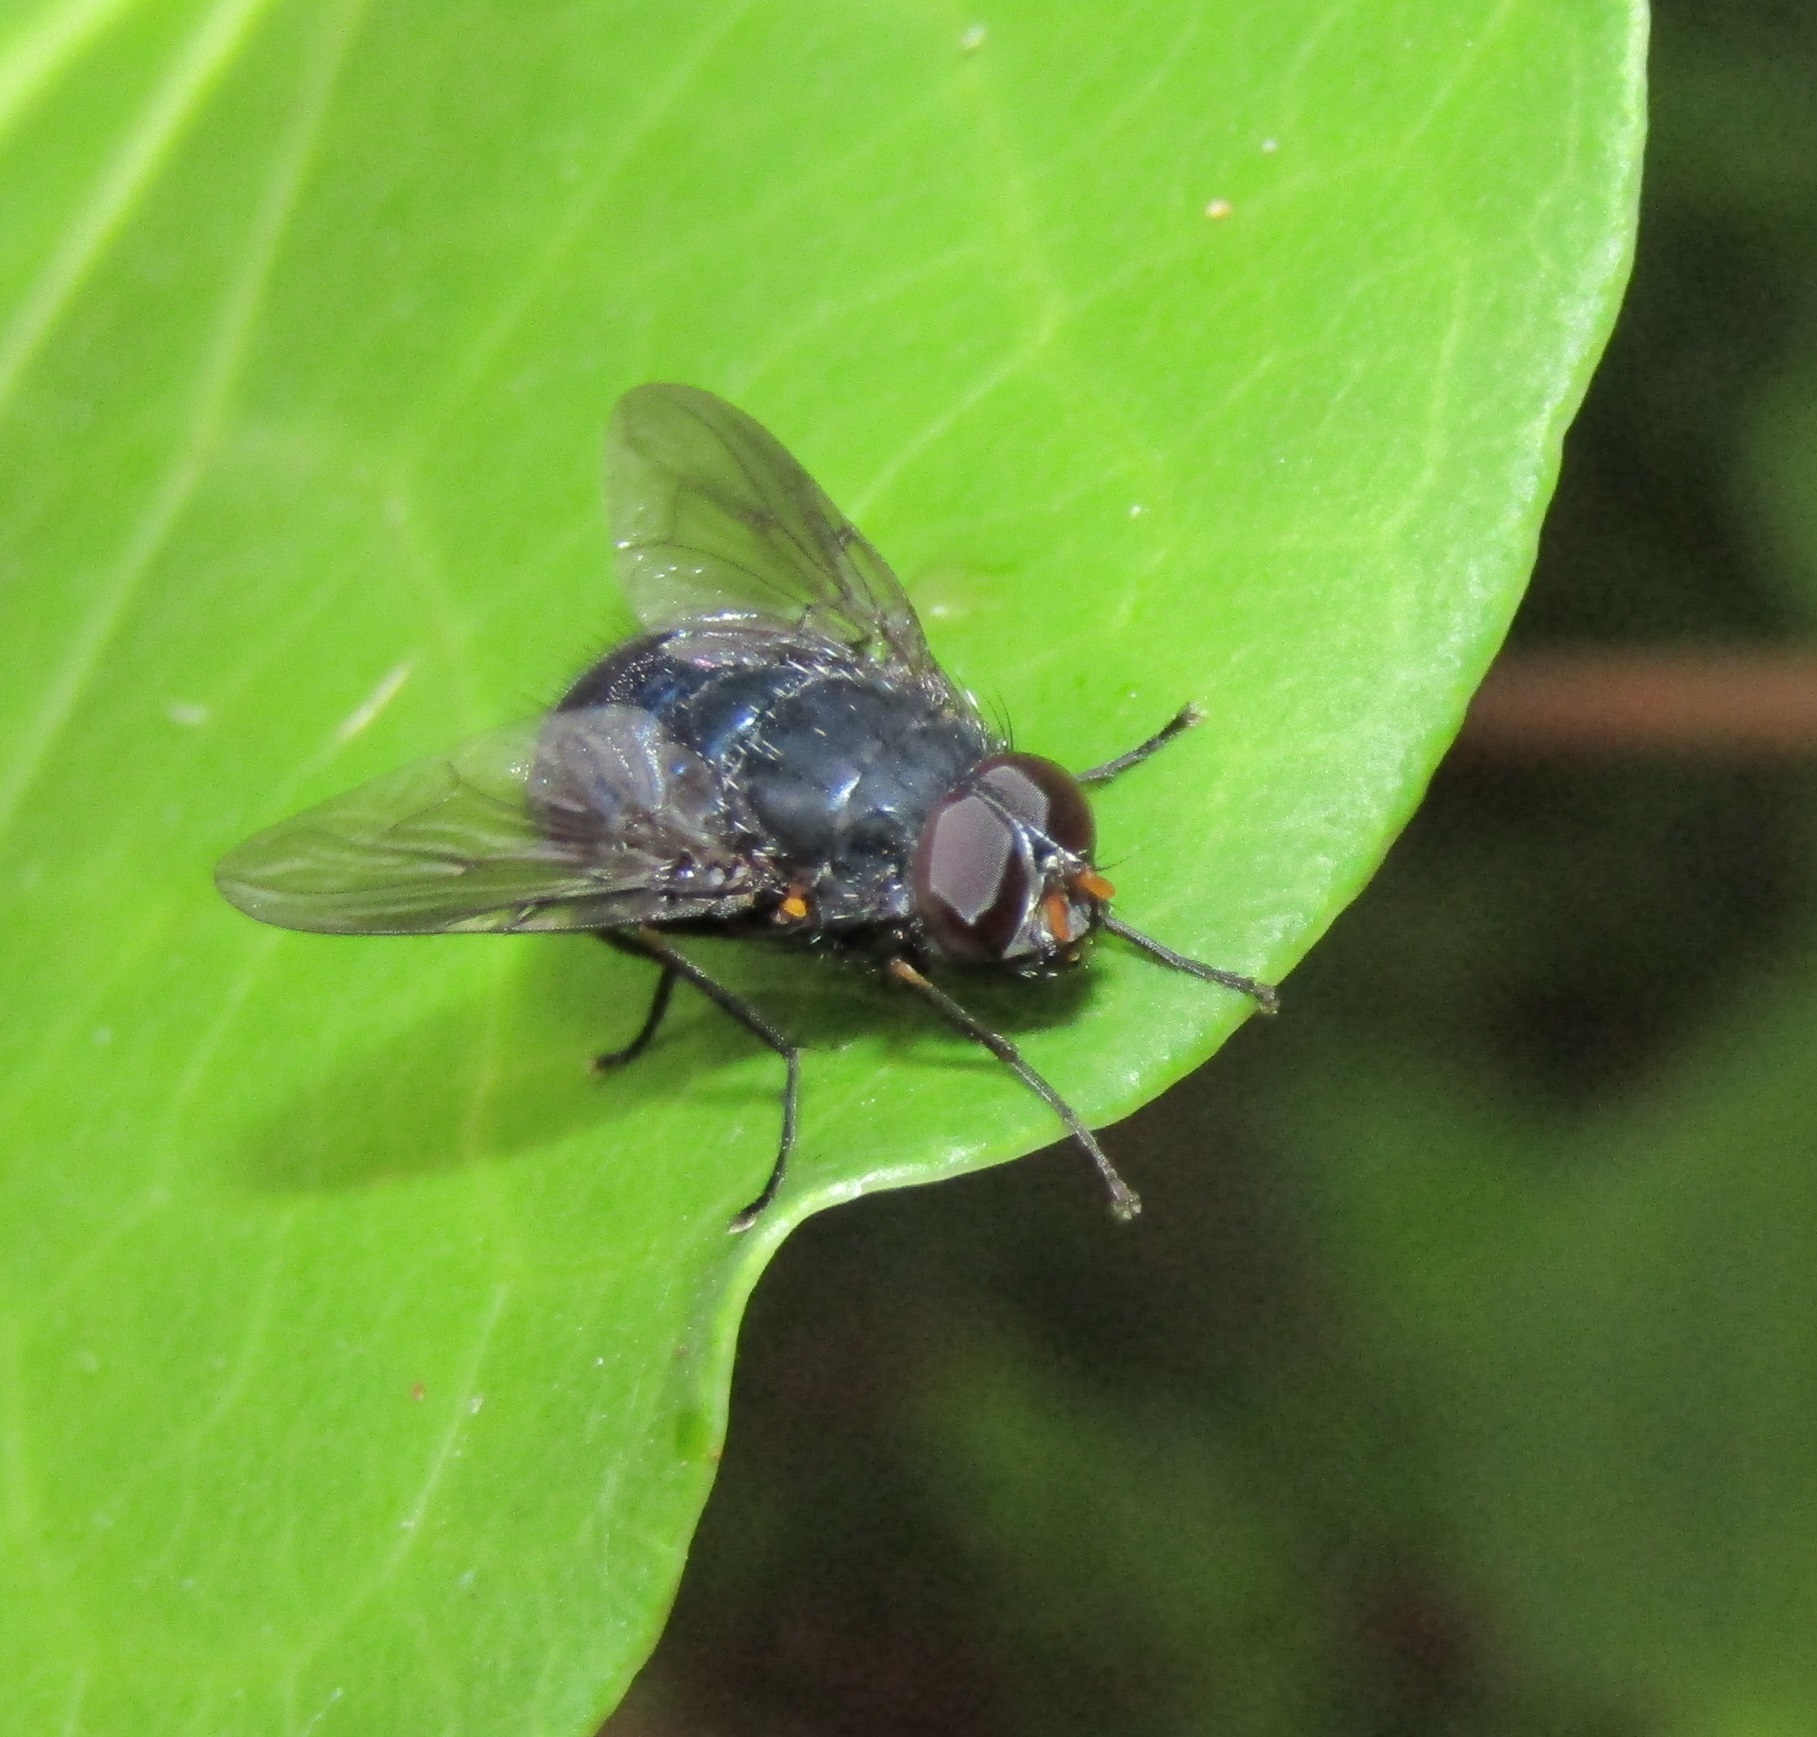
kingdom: Animalia
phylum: Arthropoda
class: Insecta
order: Diptera
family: Muscidae
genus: Calliphoroides
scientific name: Calliphoroides antennatis
